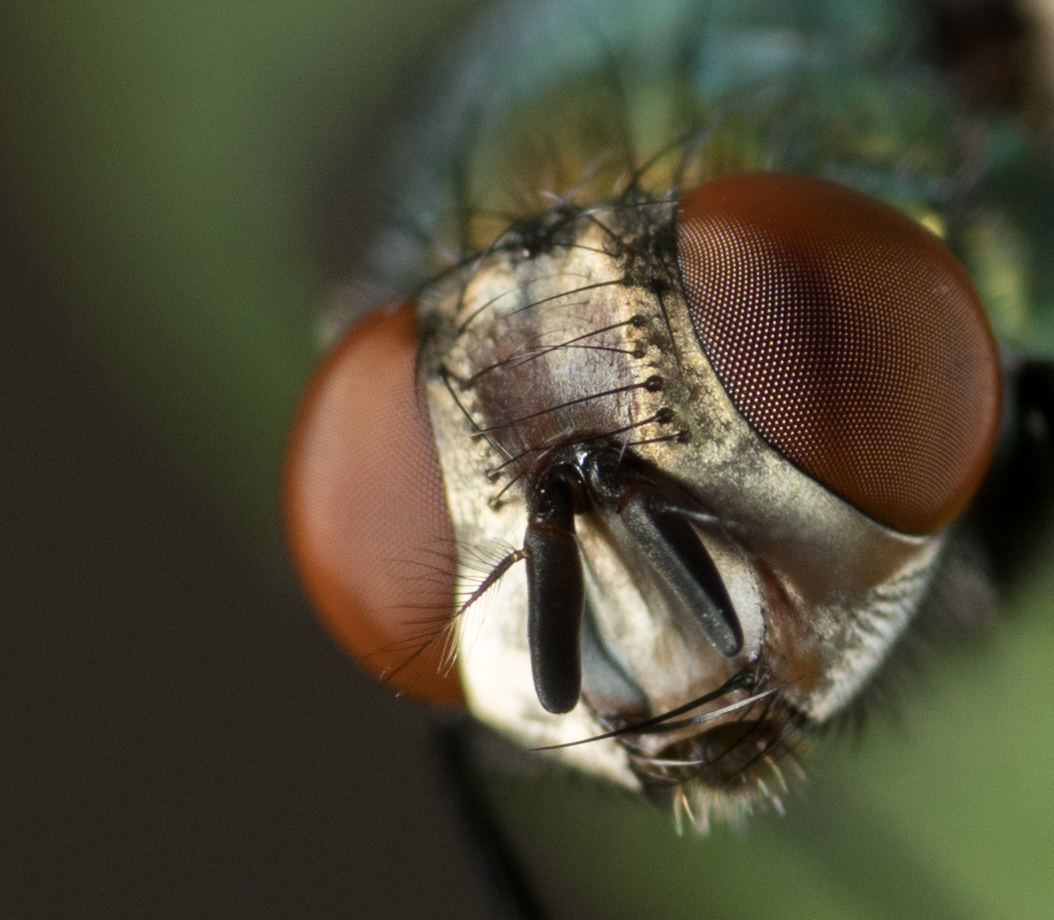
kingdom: Animalia
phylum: Arthropoda
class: Insecta
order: Diptera
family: Calliphoridae
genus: Lucilia
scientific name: Lucilia sericata
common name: Blow fly
